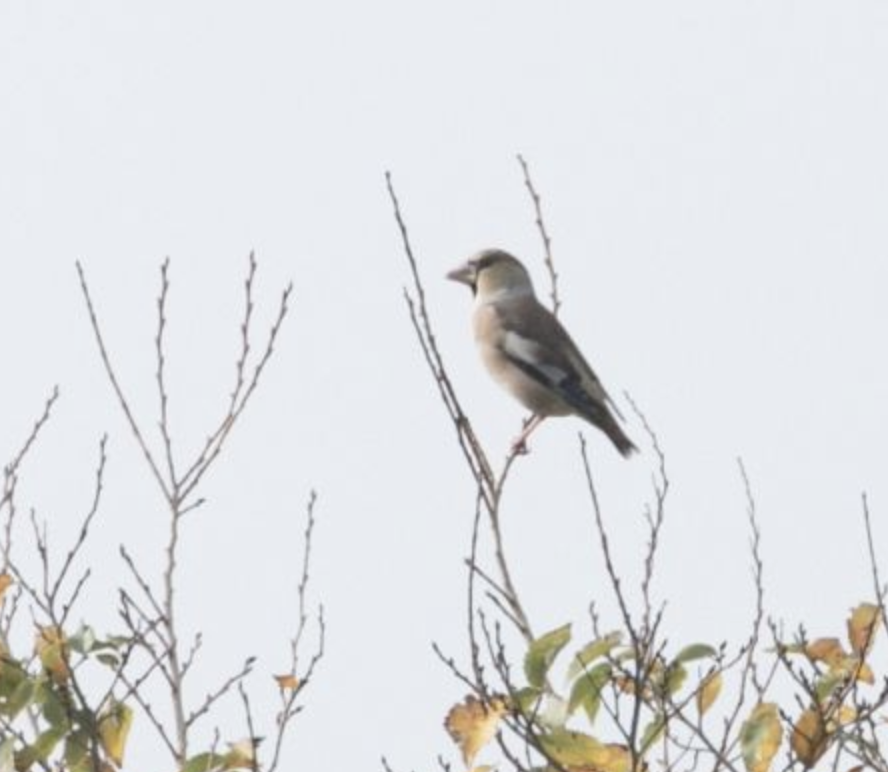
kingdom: Animalia
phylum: Chordata
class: Aves
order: Passeriformes
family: Fringillidae
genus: Coccothraustes
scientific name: Coccothraustes coccothraustes
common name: Hawfinch
